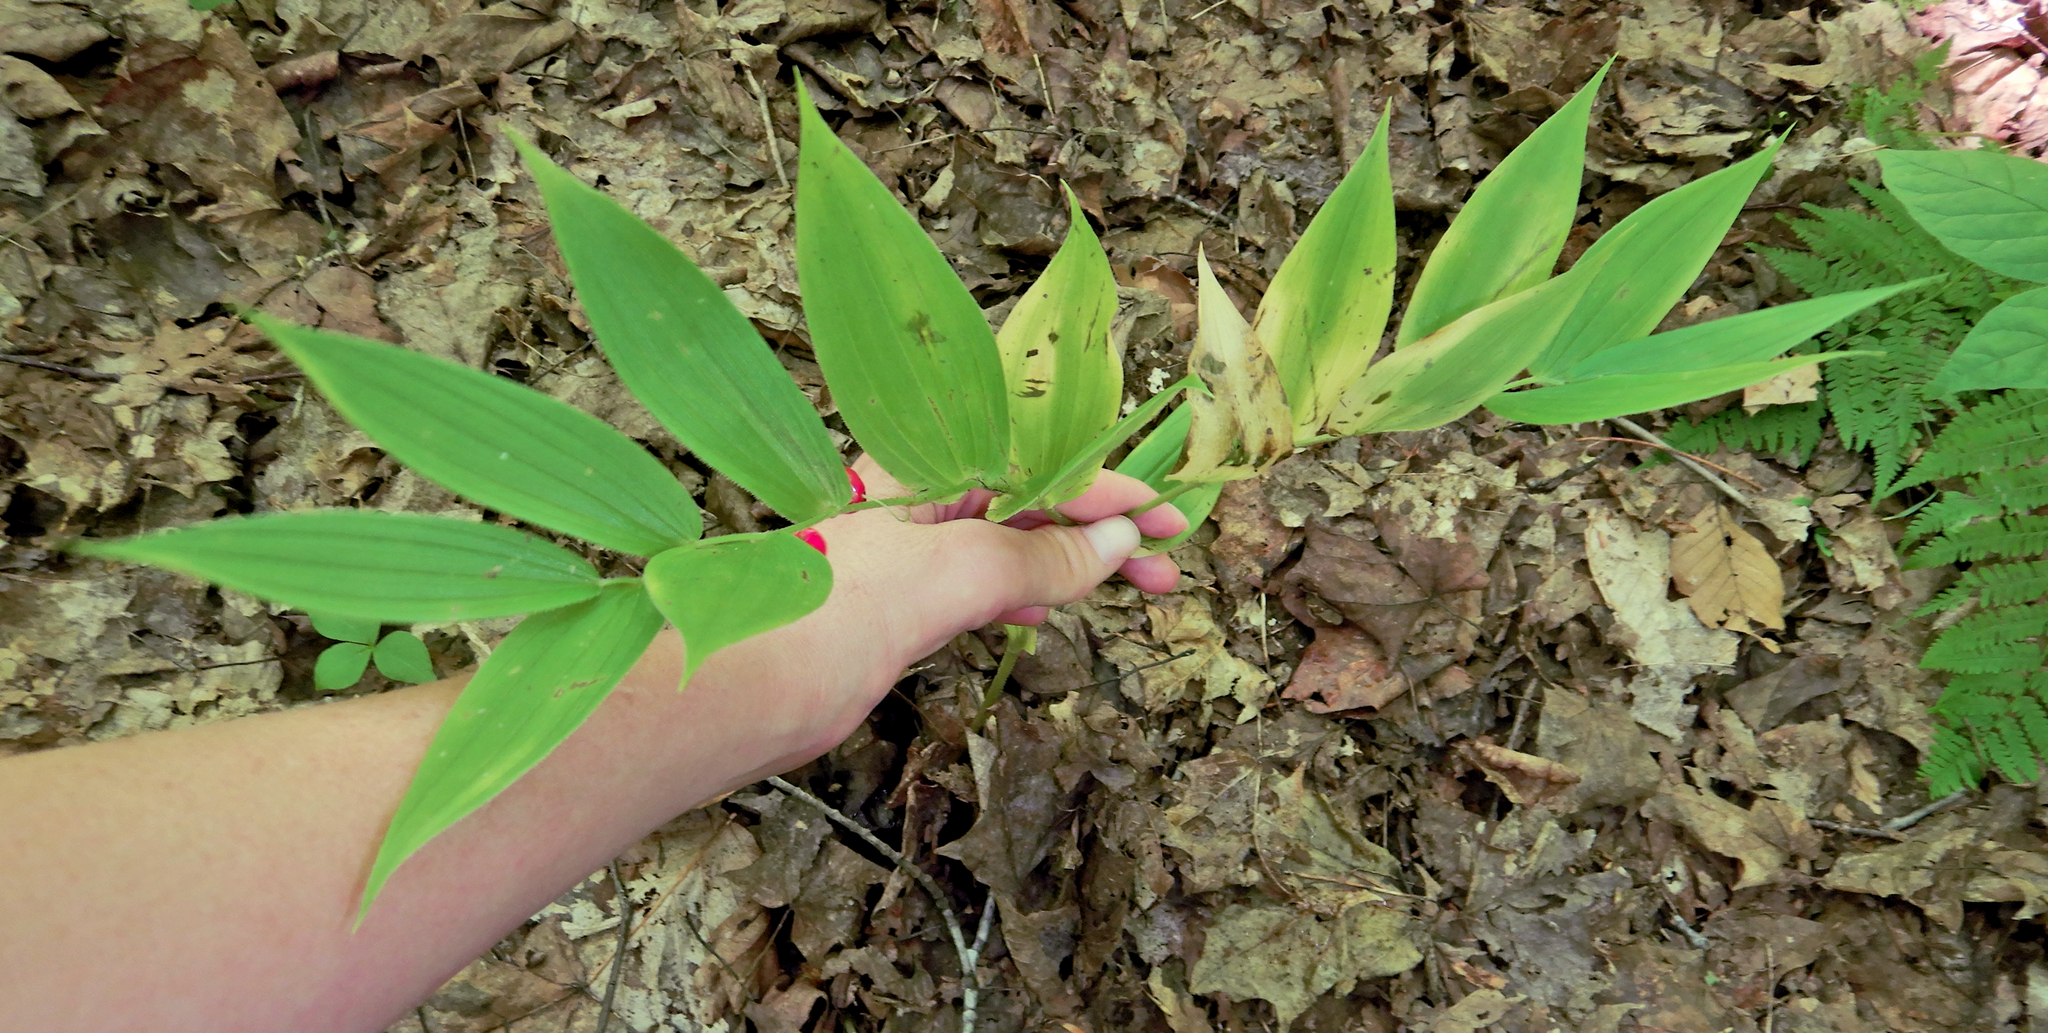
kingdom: Plantae
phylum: Tracheophyta
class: Liliopsida
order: Liliales
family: Liliaceae
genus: Streptopus
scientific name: Streptopus lanceolatus
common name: Rose mandarin
